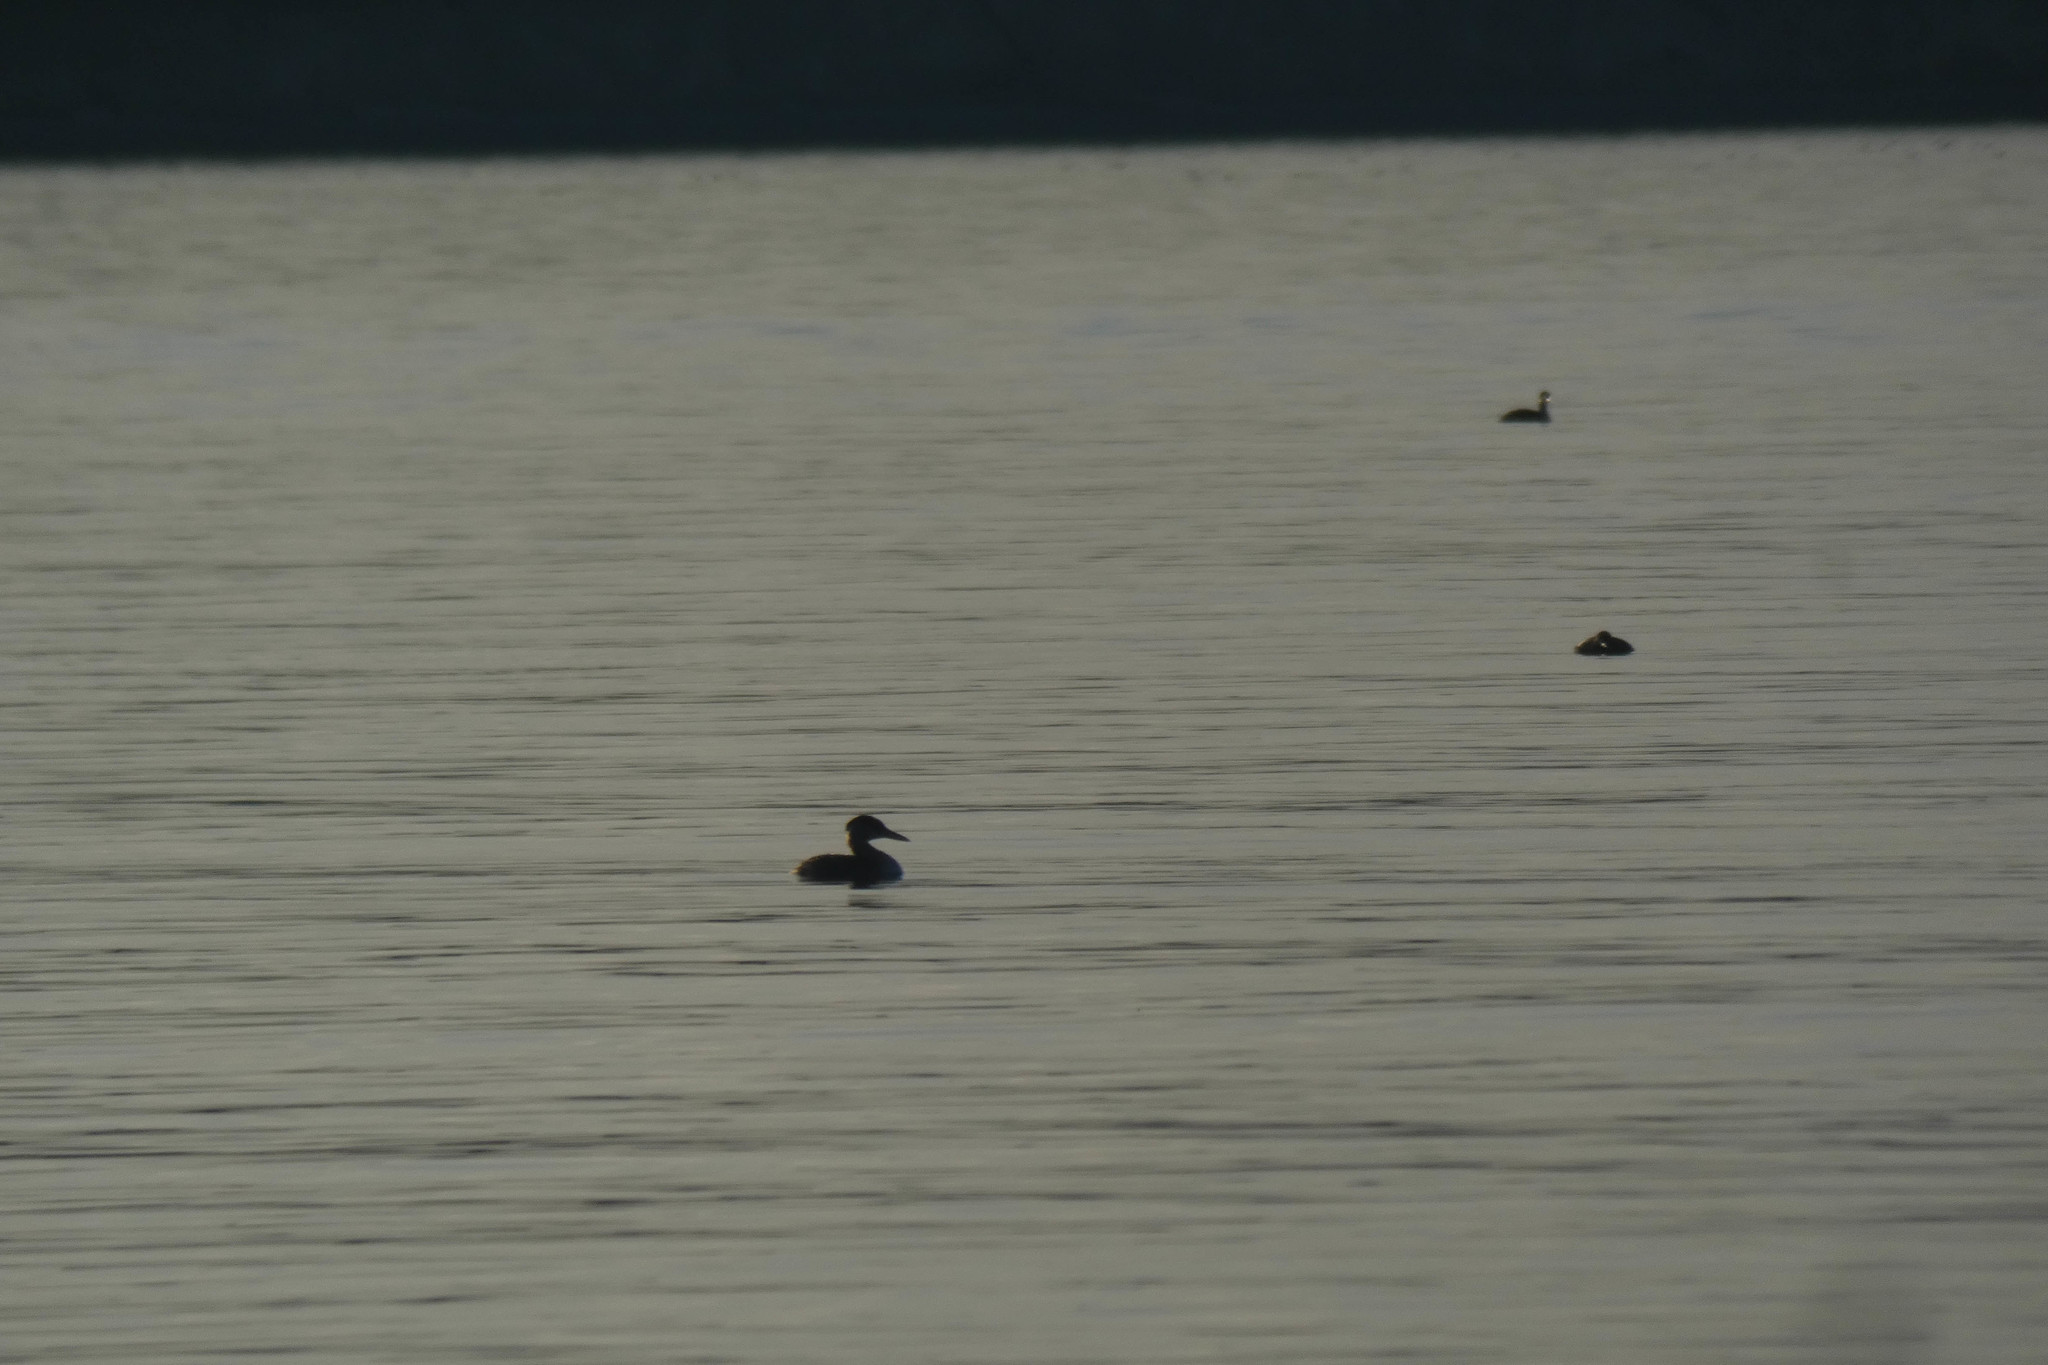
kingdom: Animalia
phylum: Chordata
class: Aves
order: Podicipediformes
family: Podicipedidae
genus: Podiceps
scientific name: Podiceps grisegena
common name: Red-necked grebe
